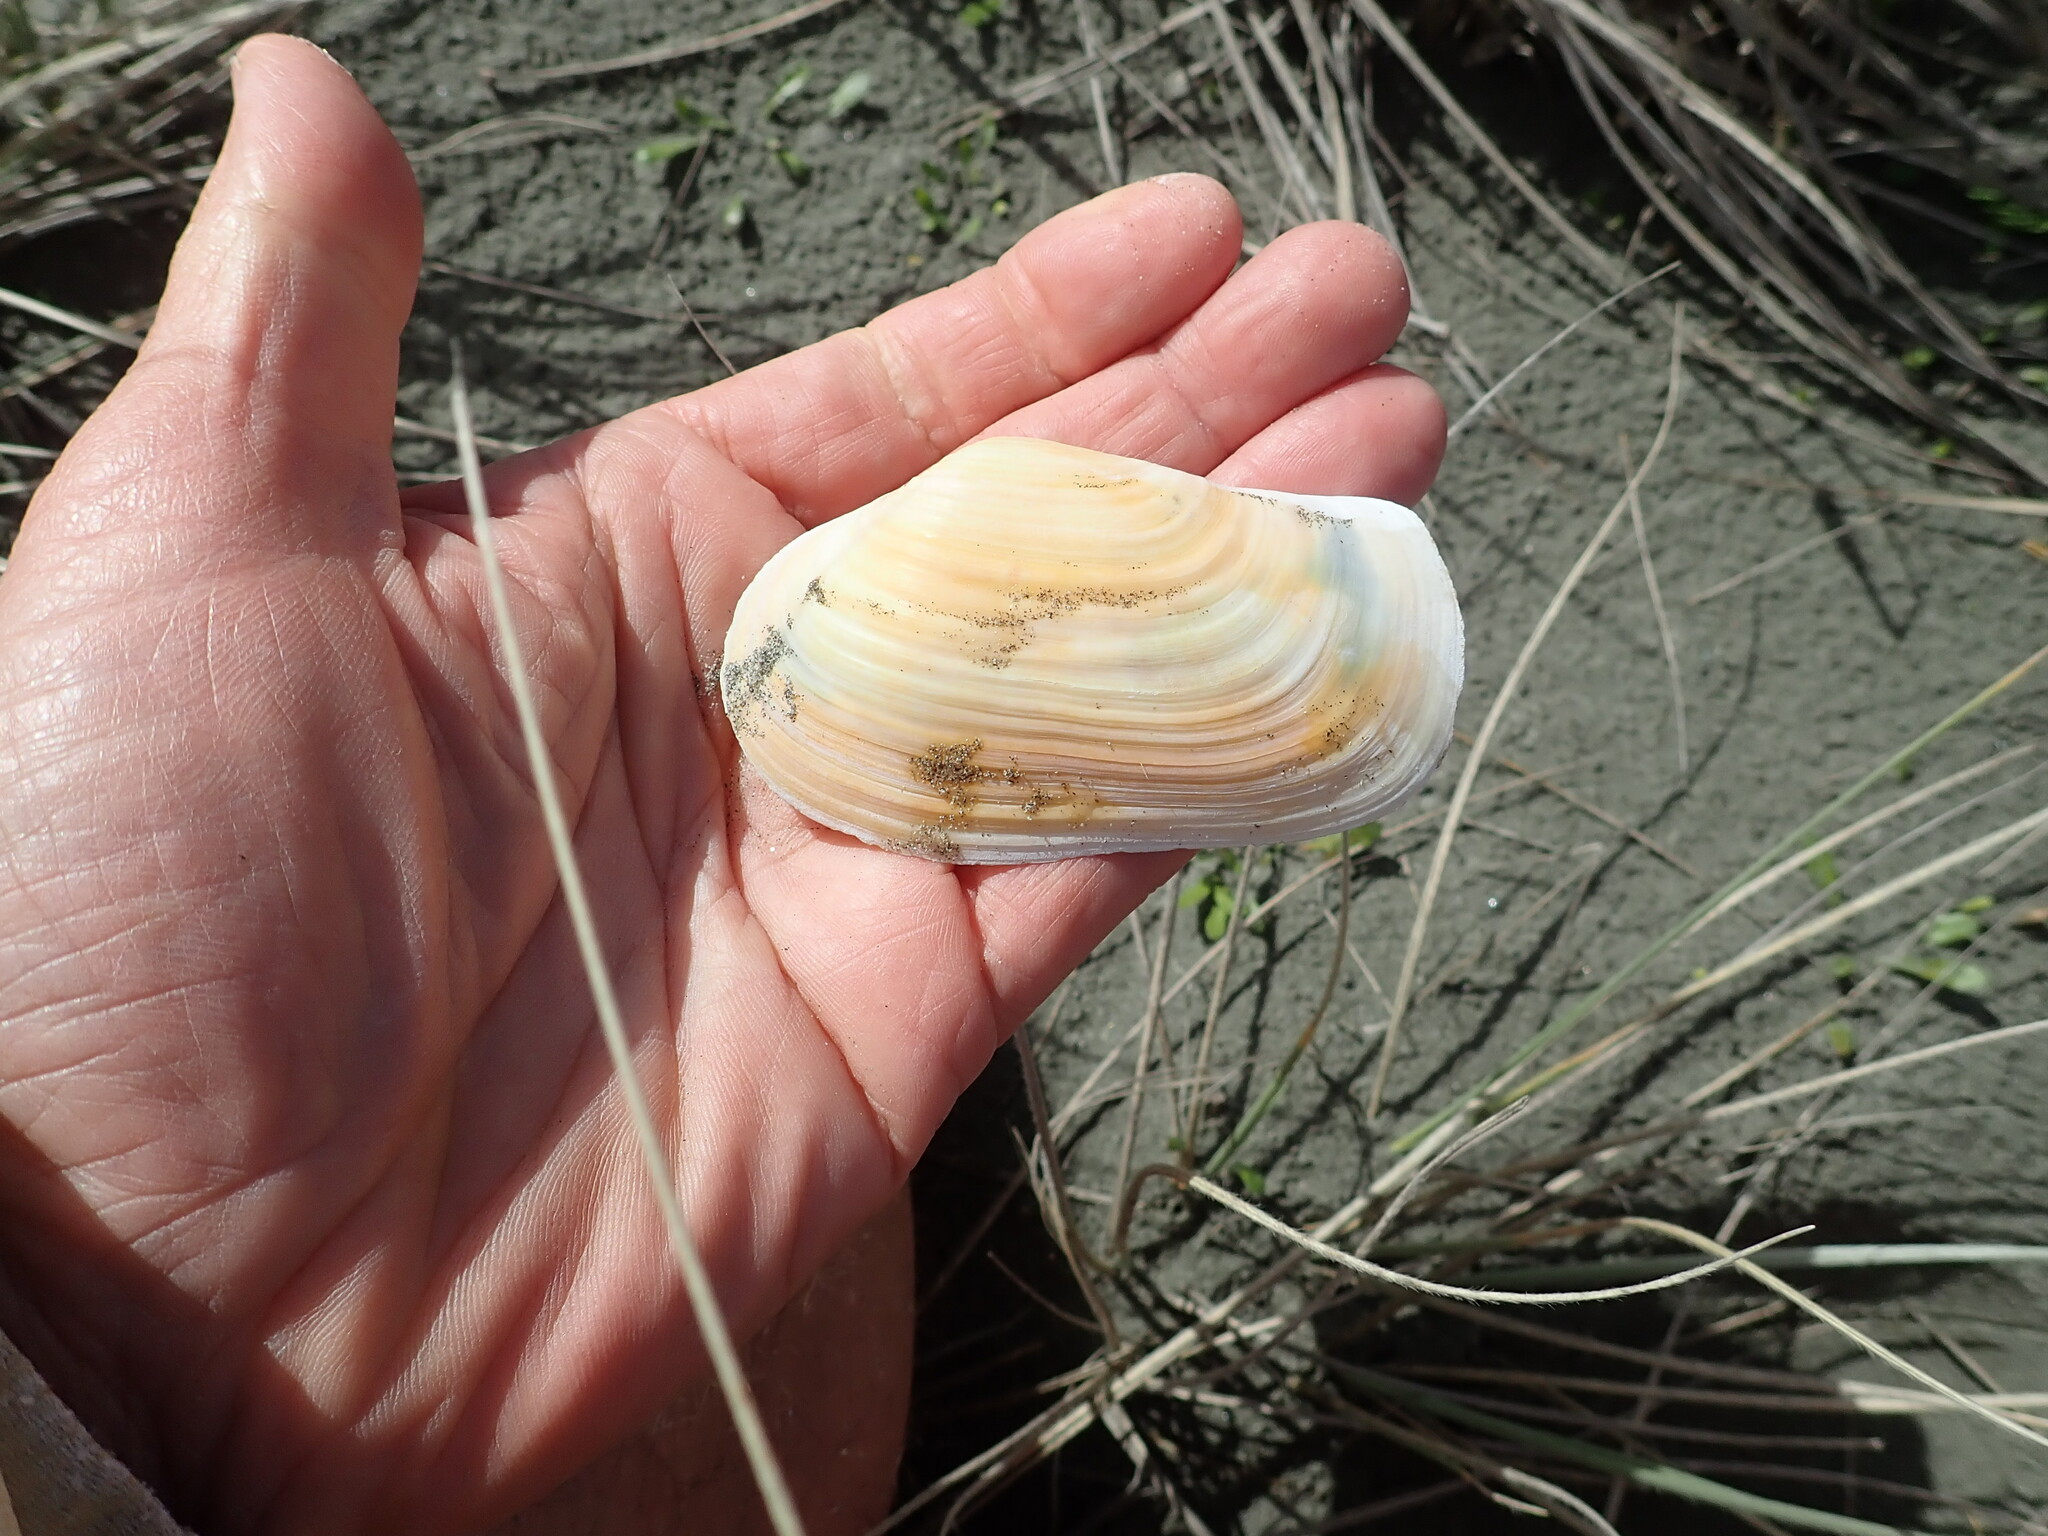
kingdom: Animalia
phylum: Mollusca
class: Bivalvia
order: Adapedonta
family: Hiatellidae
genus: Panopea
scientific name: Panopea zelandica
